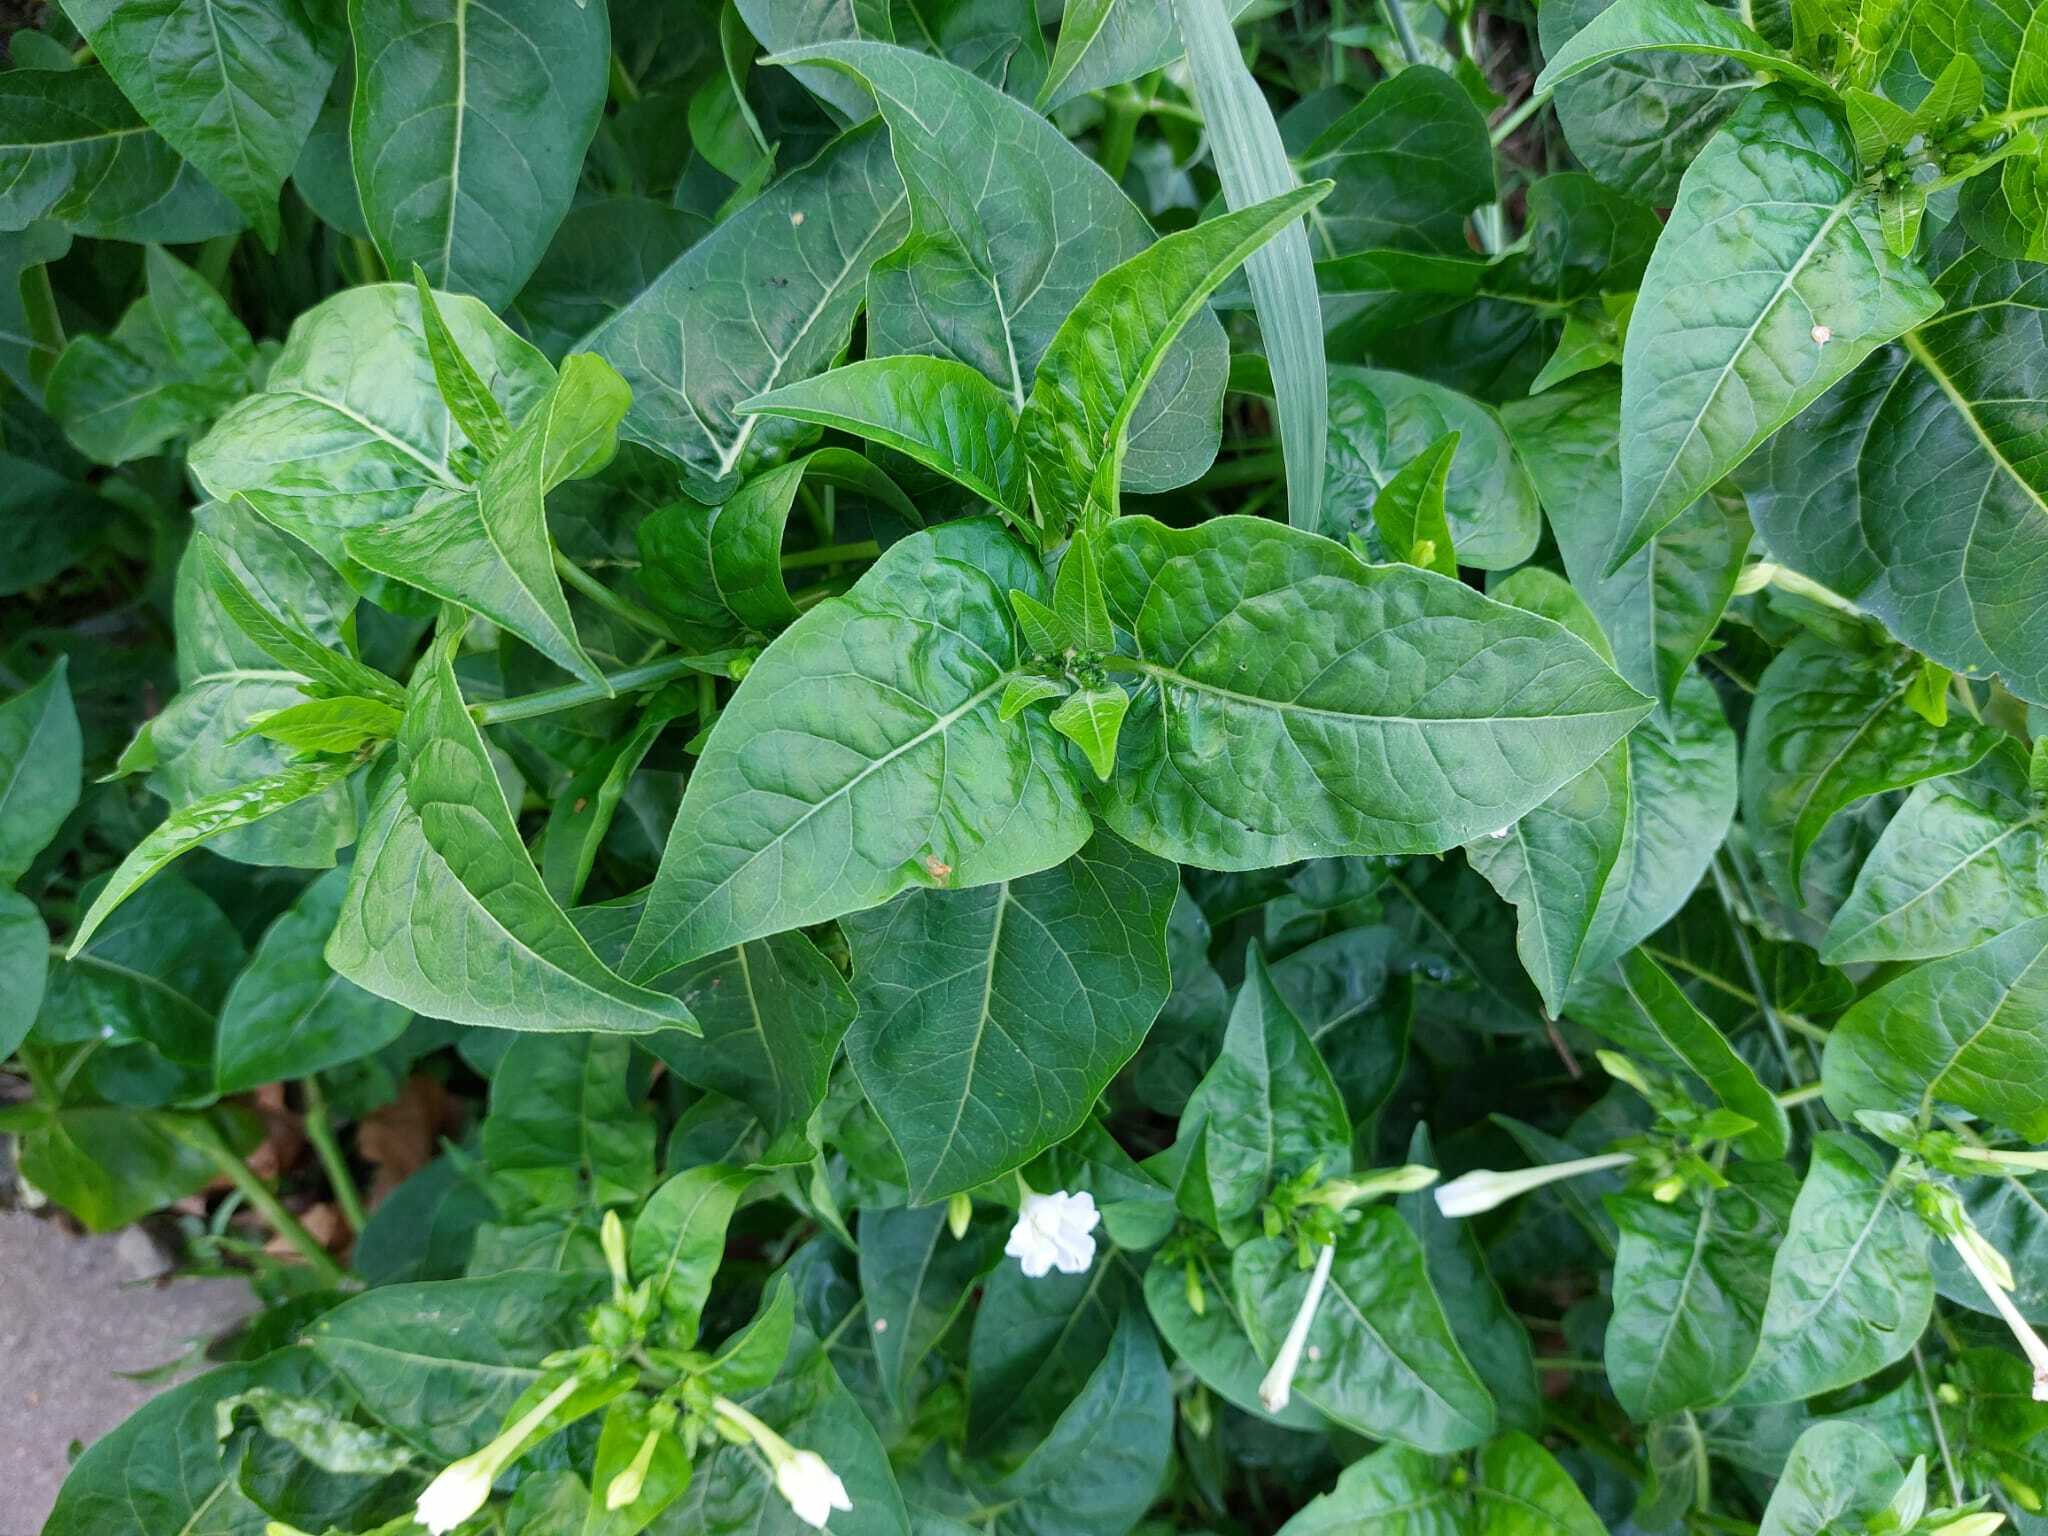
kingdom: Plantae
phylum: Tracheophyta
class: Magnoliopsida
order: Caryophyllales
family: Nyctaginaceae
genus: Mirabilis
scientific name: Mirabilis jalapa
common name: Marvel-of-peru
